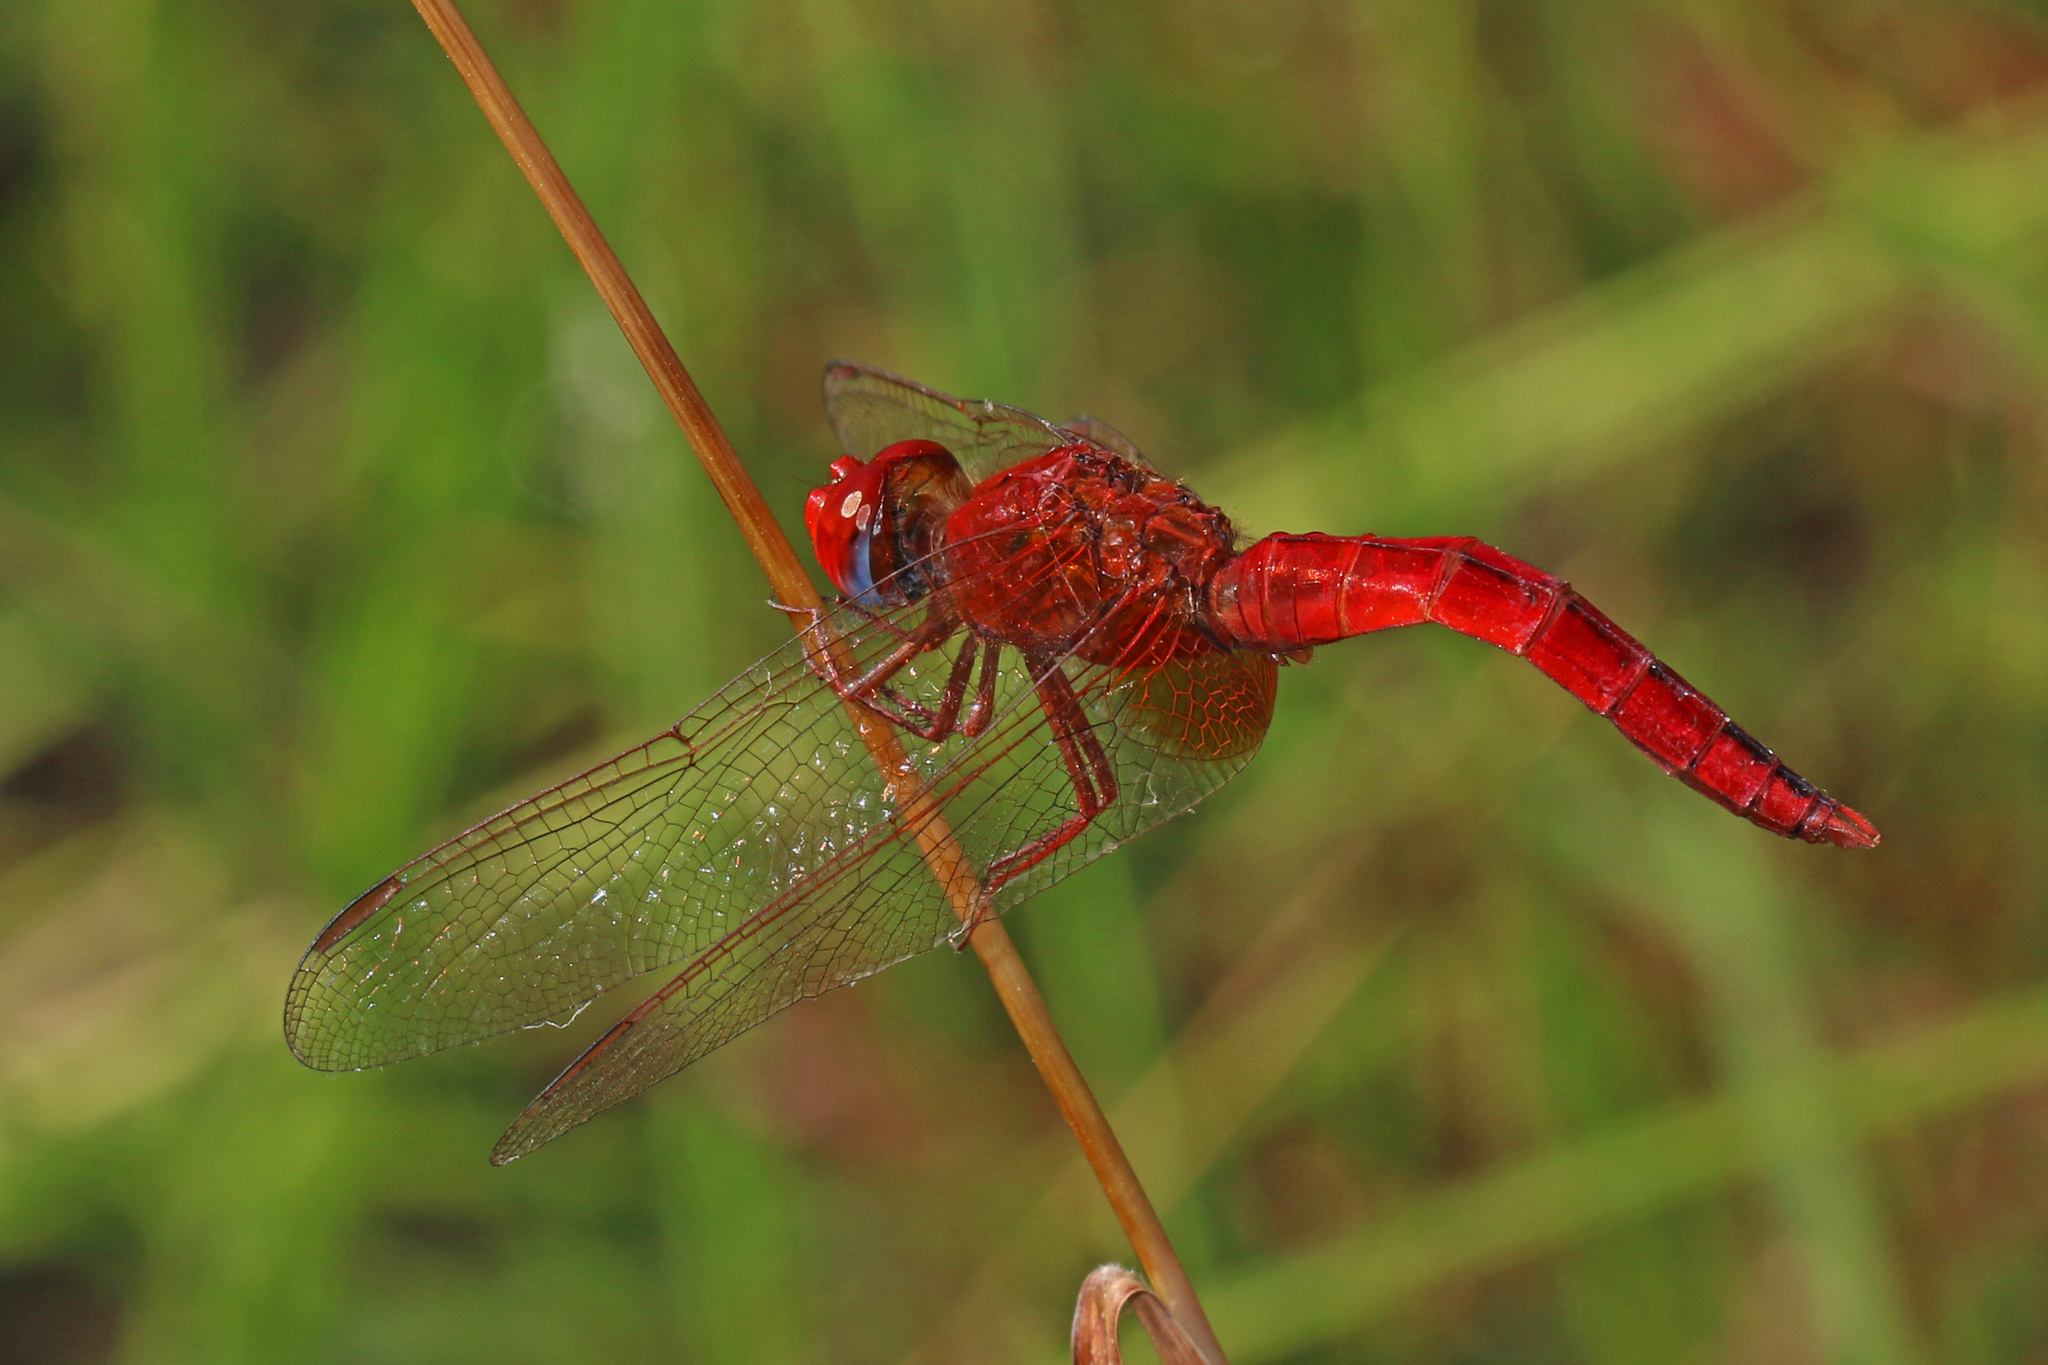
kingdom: Animalia
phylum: Arthropoda
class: Insecta
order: Odonata
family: Libellulidae
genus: Crocothemis
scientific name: Crocothemis erythraea
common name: Scarlet dragonfly
